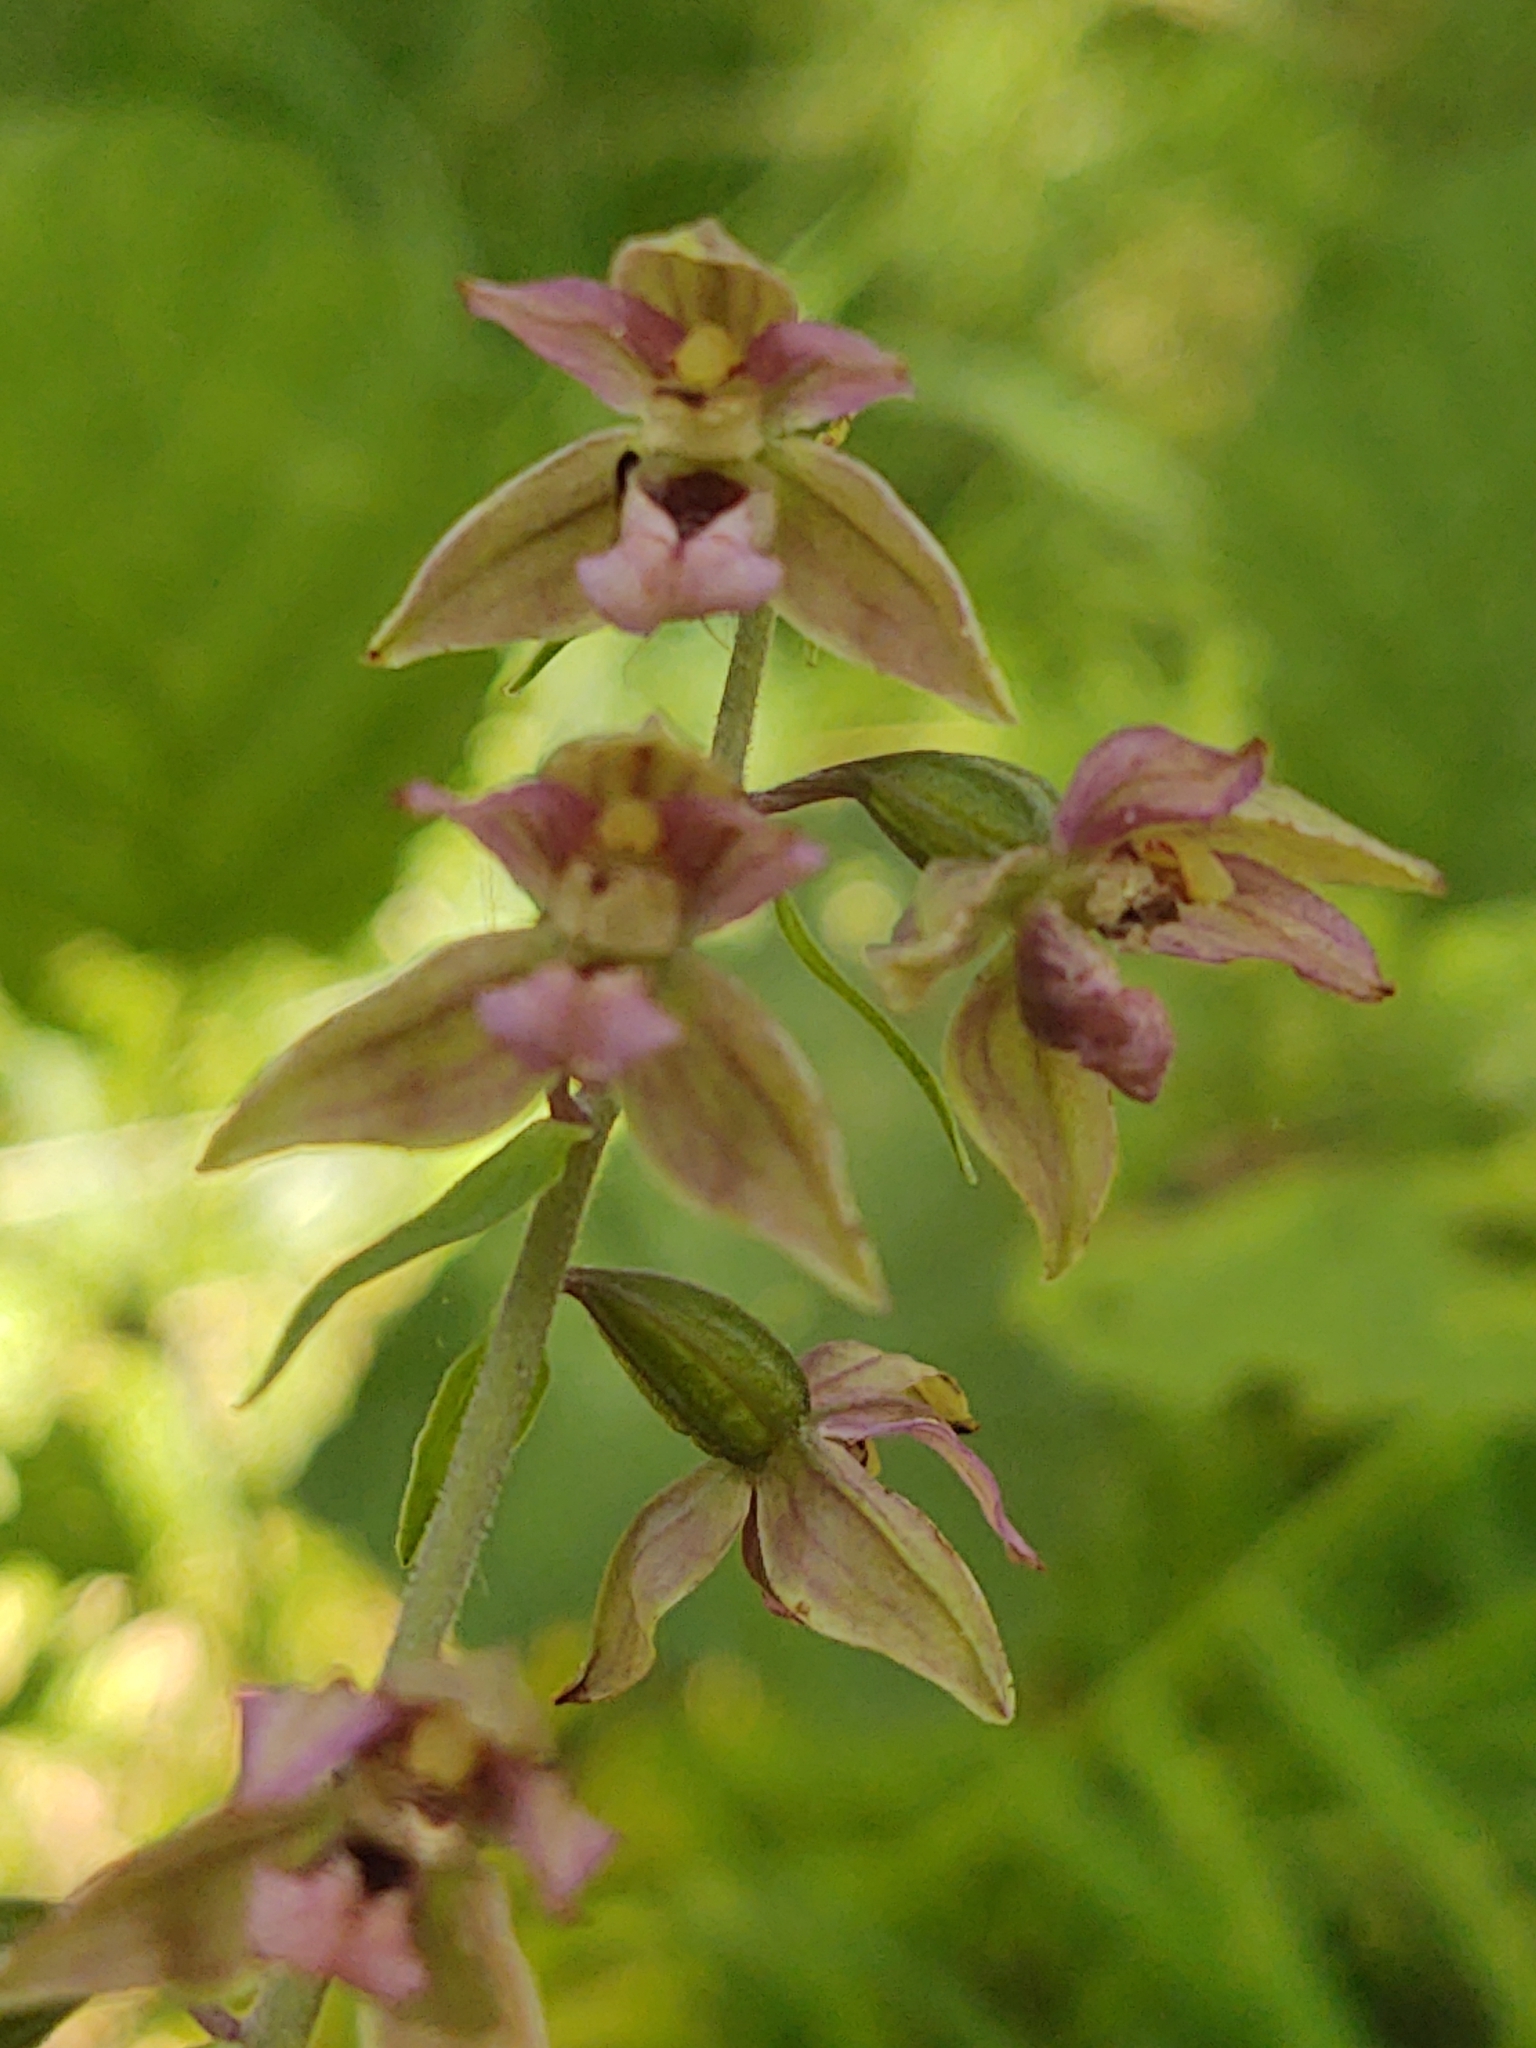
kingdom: Plantae
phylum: Tracheophyta
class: Liliopsida
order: Asparagales
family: Orchidaceae
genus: Epipactis
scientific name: Epipactis helleborine
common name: Broad-leaved helleborine
